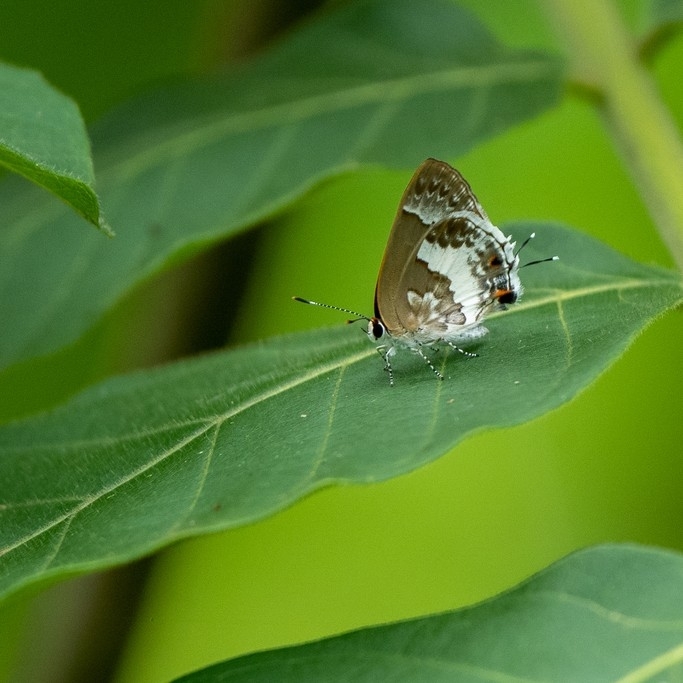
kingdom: Animalia
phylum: Arthropoda
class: Insecta
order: Lepidoptera
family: Lycaenidae
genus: Strymon
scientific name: Strymon albata
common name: White scrub-hairstreak
